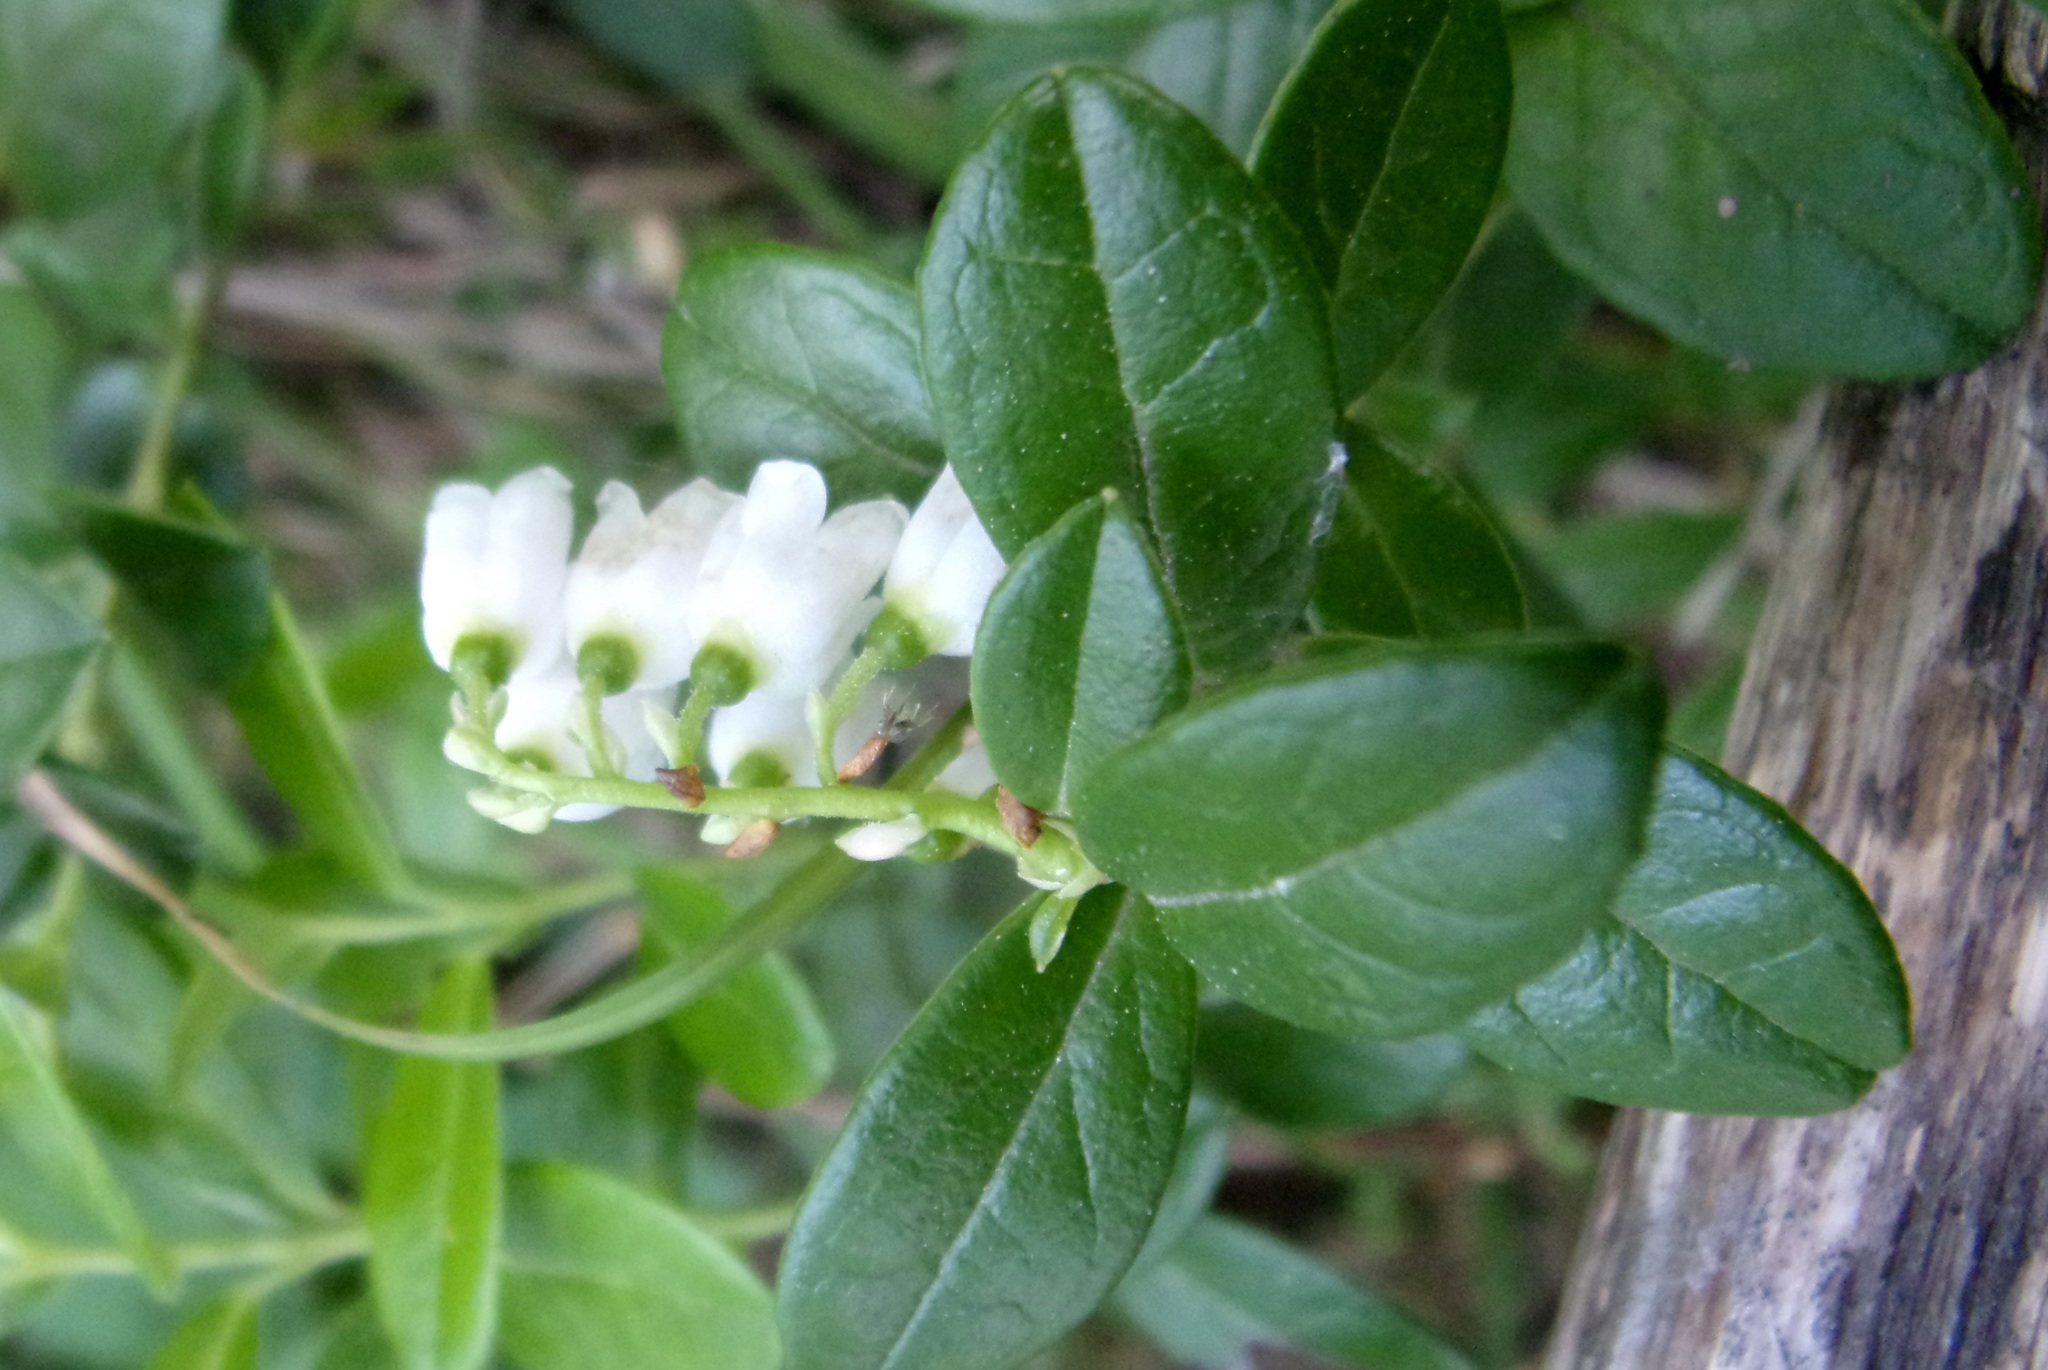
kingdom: Plantae
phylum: Tracheophyta
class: Magnoliopsida
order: Ericales
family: Ericaceae
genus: Vaccinium
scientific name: Vaccinium vitis-idaea
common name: Cowberry
